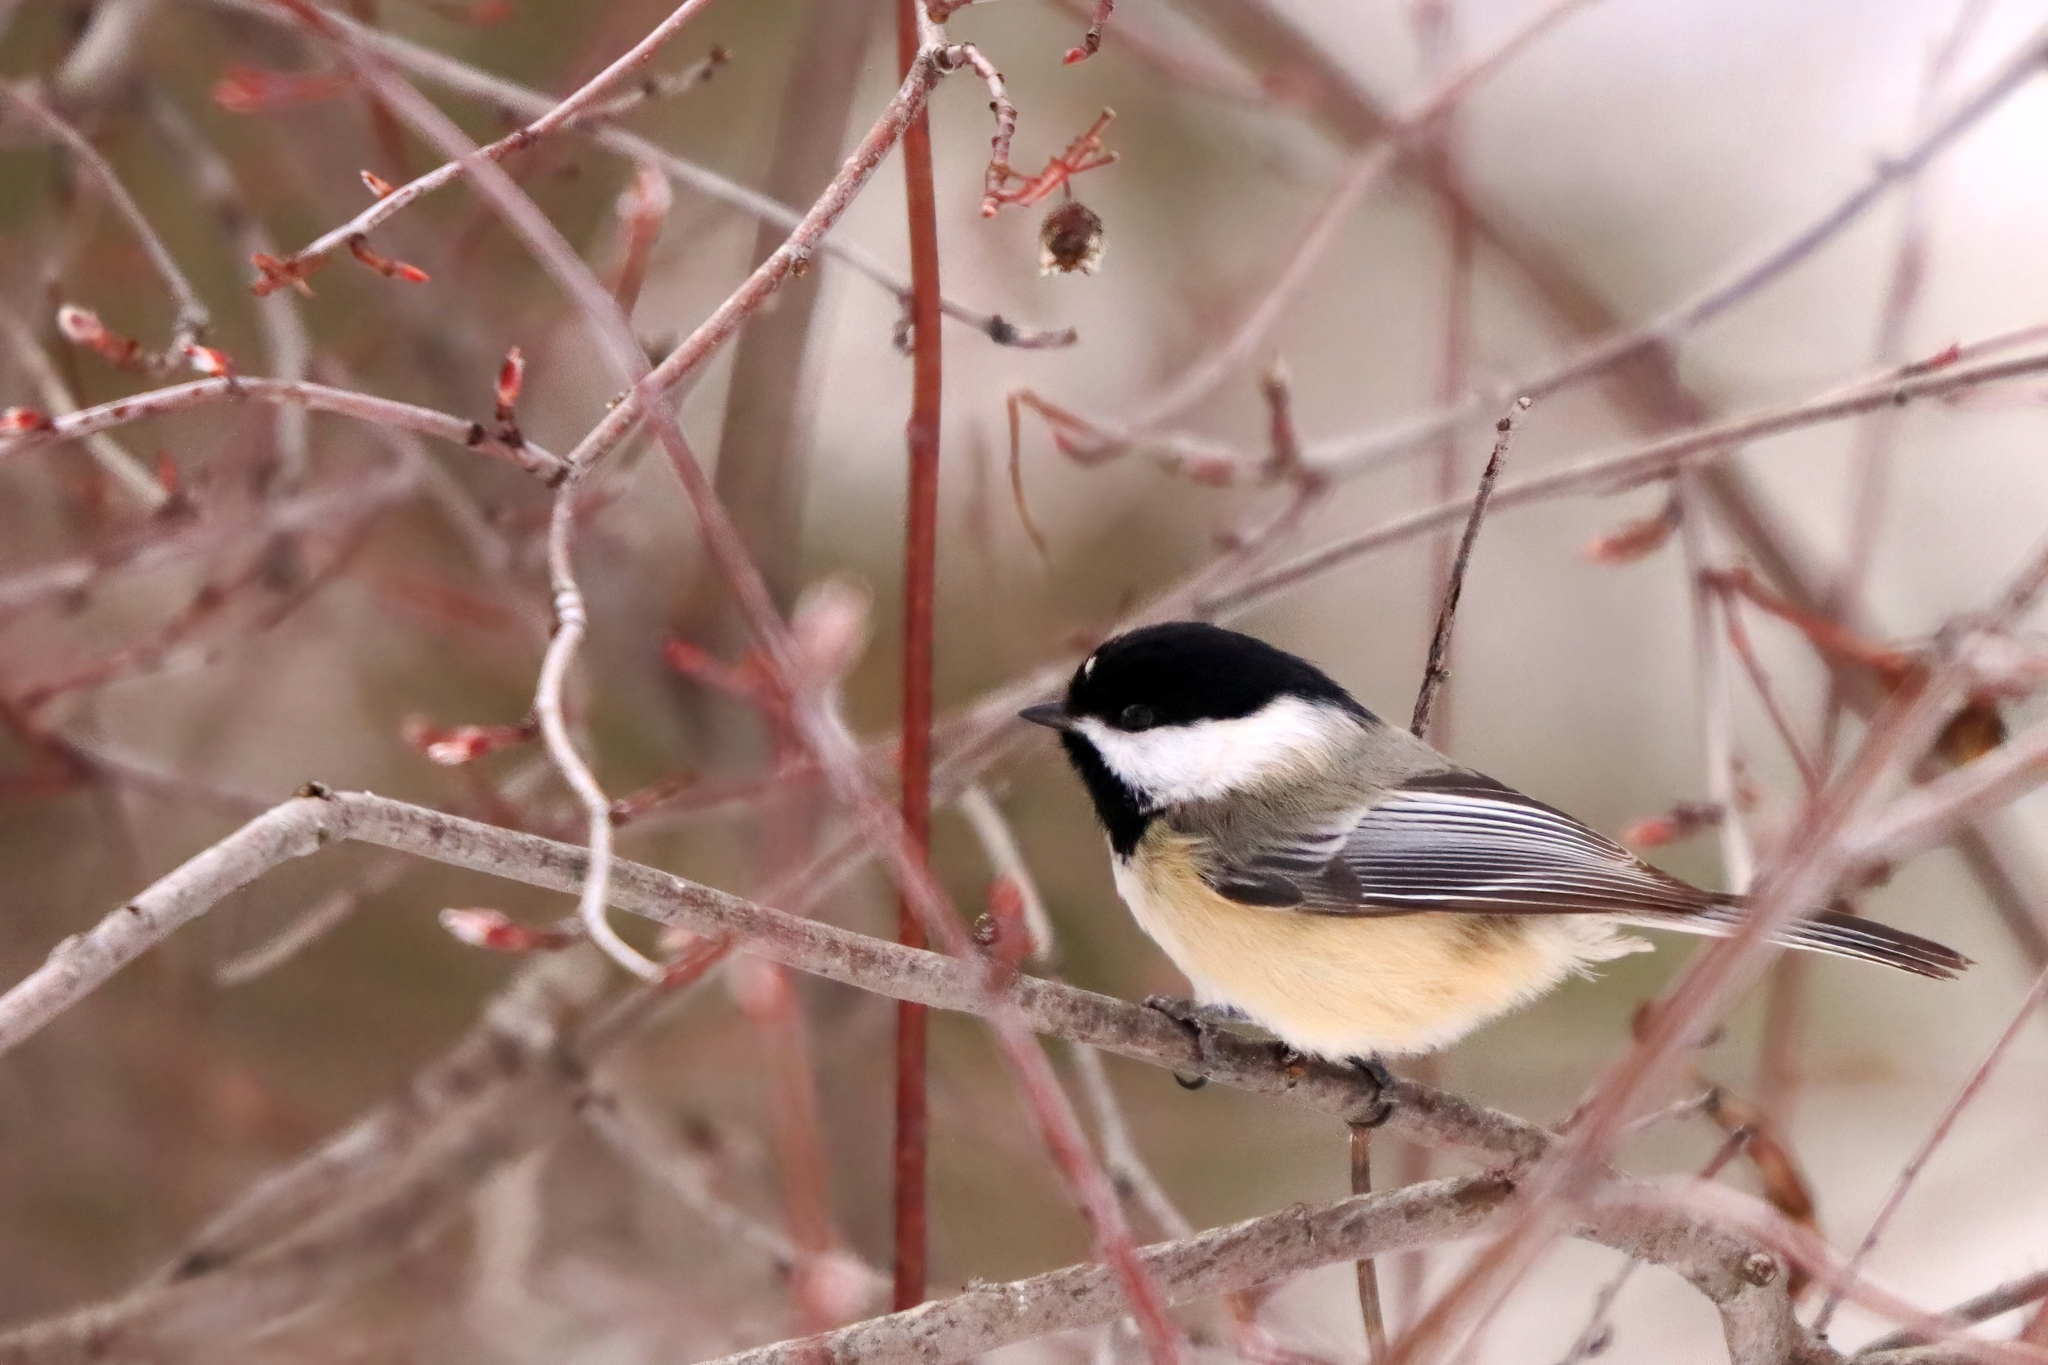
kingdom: Animalia
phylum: Chordata
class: Aves
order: Passeriformes
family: Paridae
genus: Poecile
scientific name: Poecile atricapillus
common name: Black-capped chickadee
